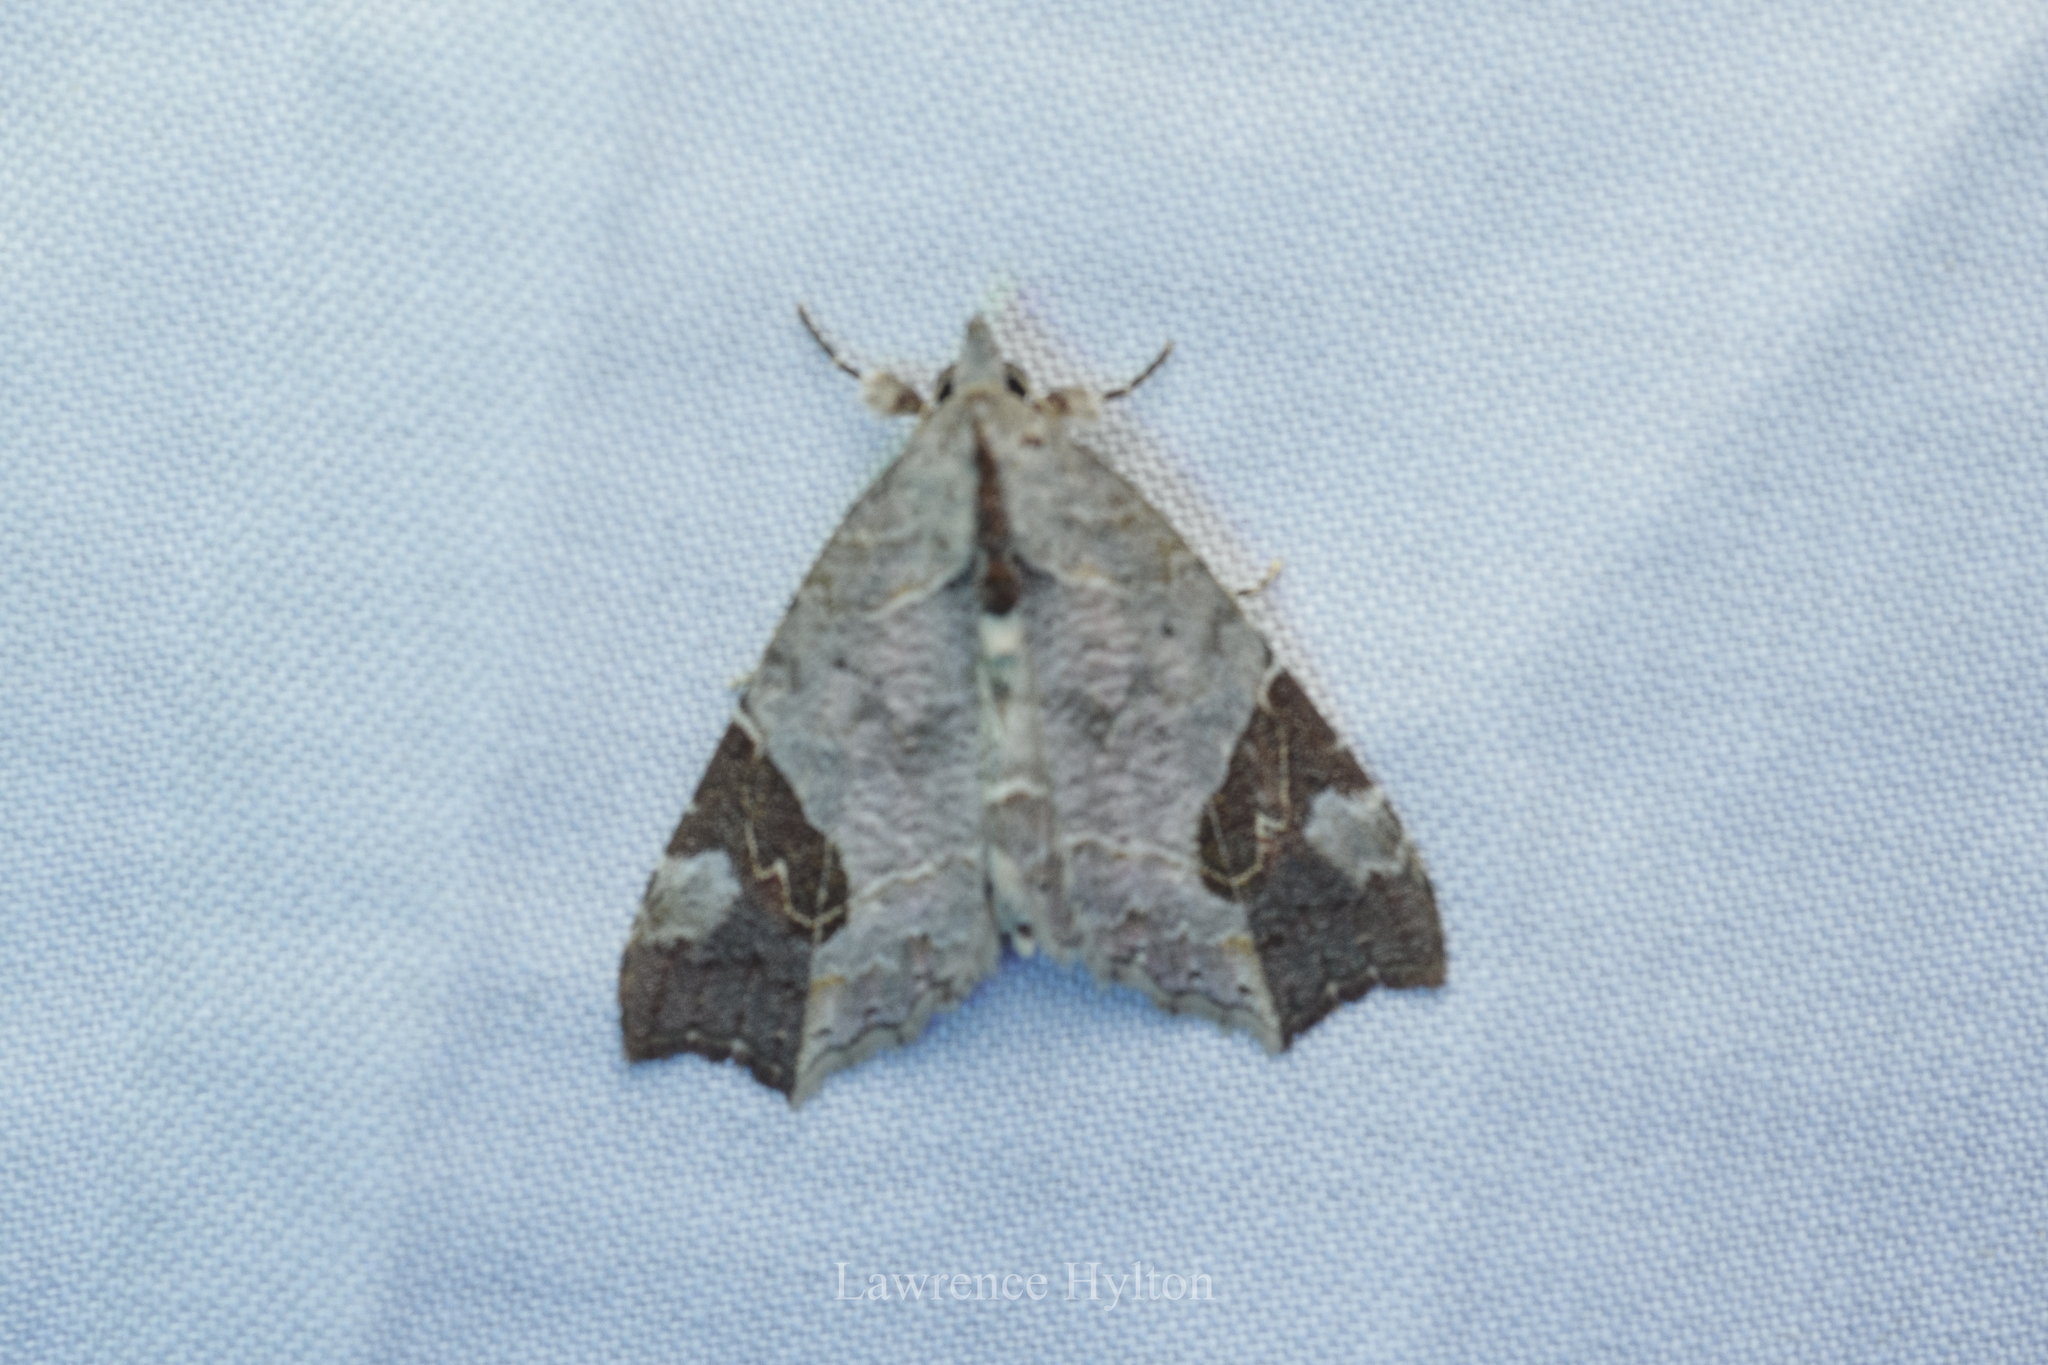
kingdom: Animalia
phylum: Arthropoda
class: Insecta
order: Lepidoptera
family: Erebidae
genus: Tamba
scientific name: Tamba cautiperas
